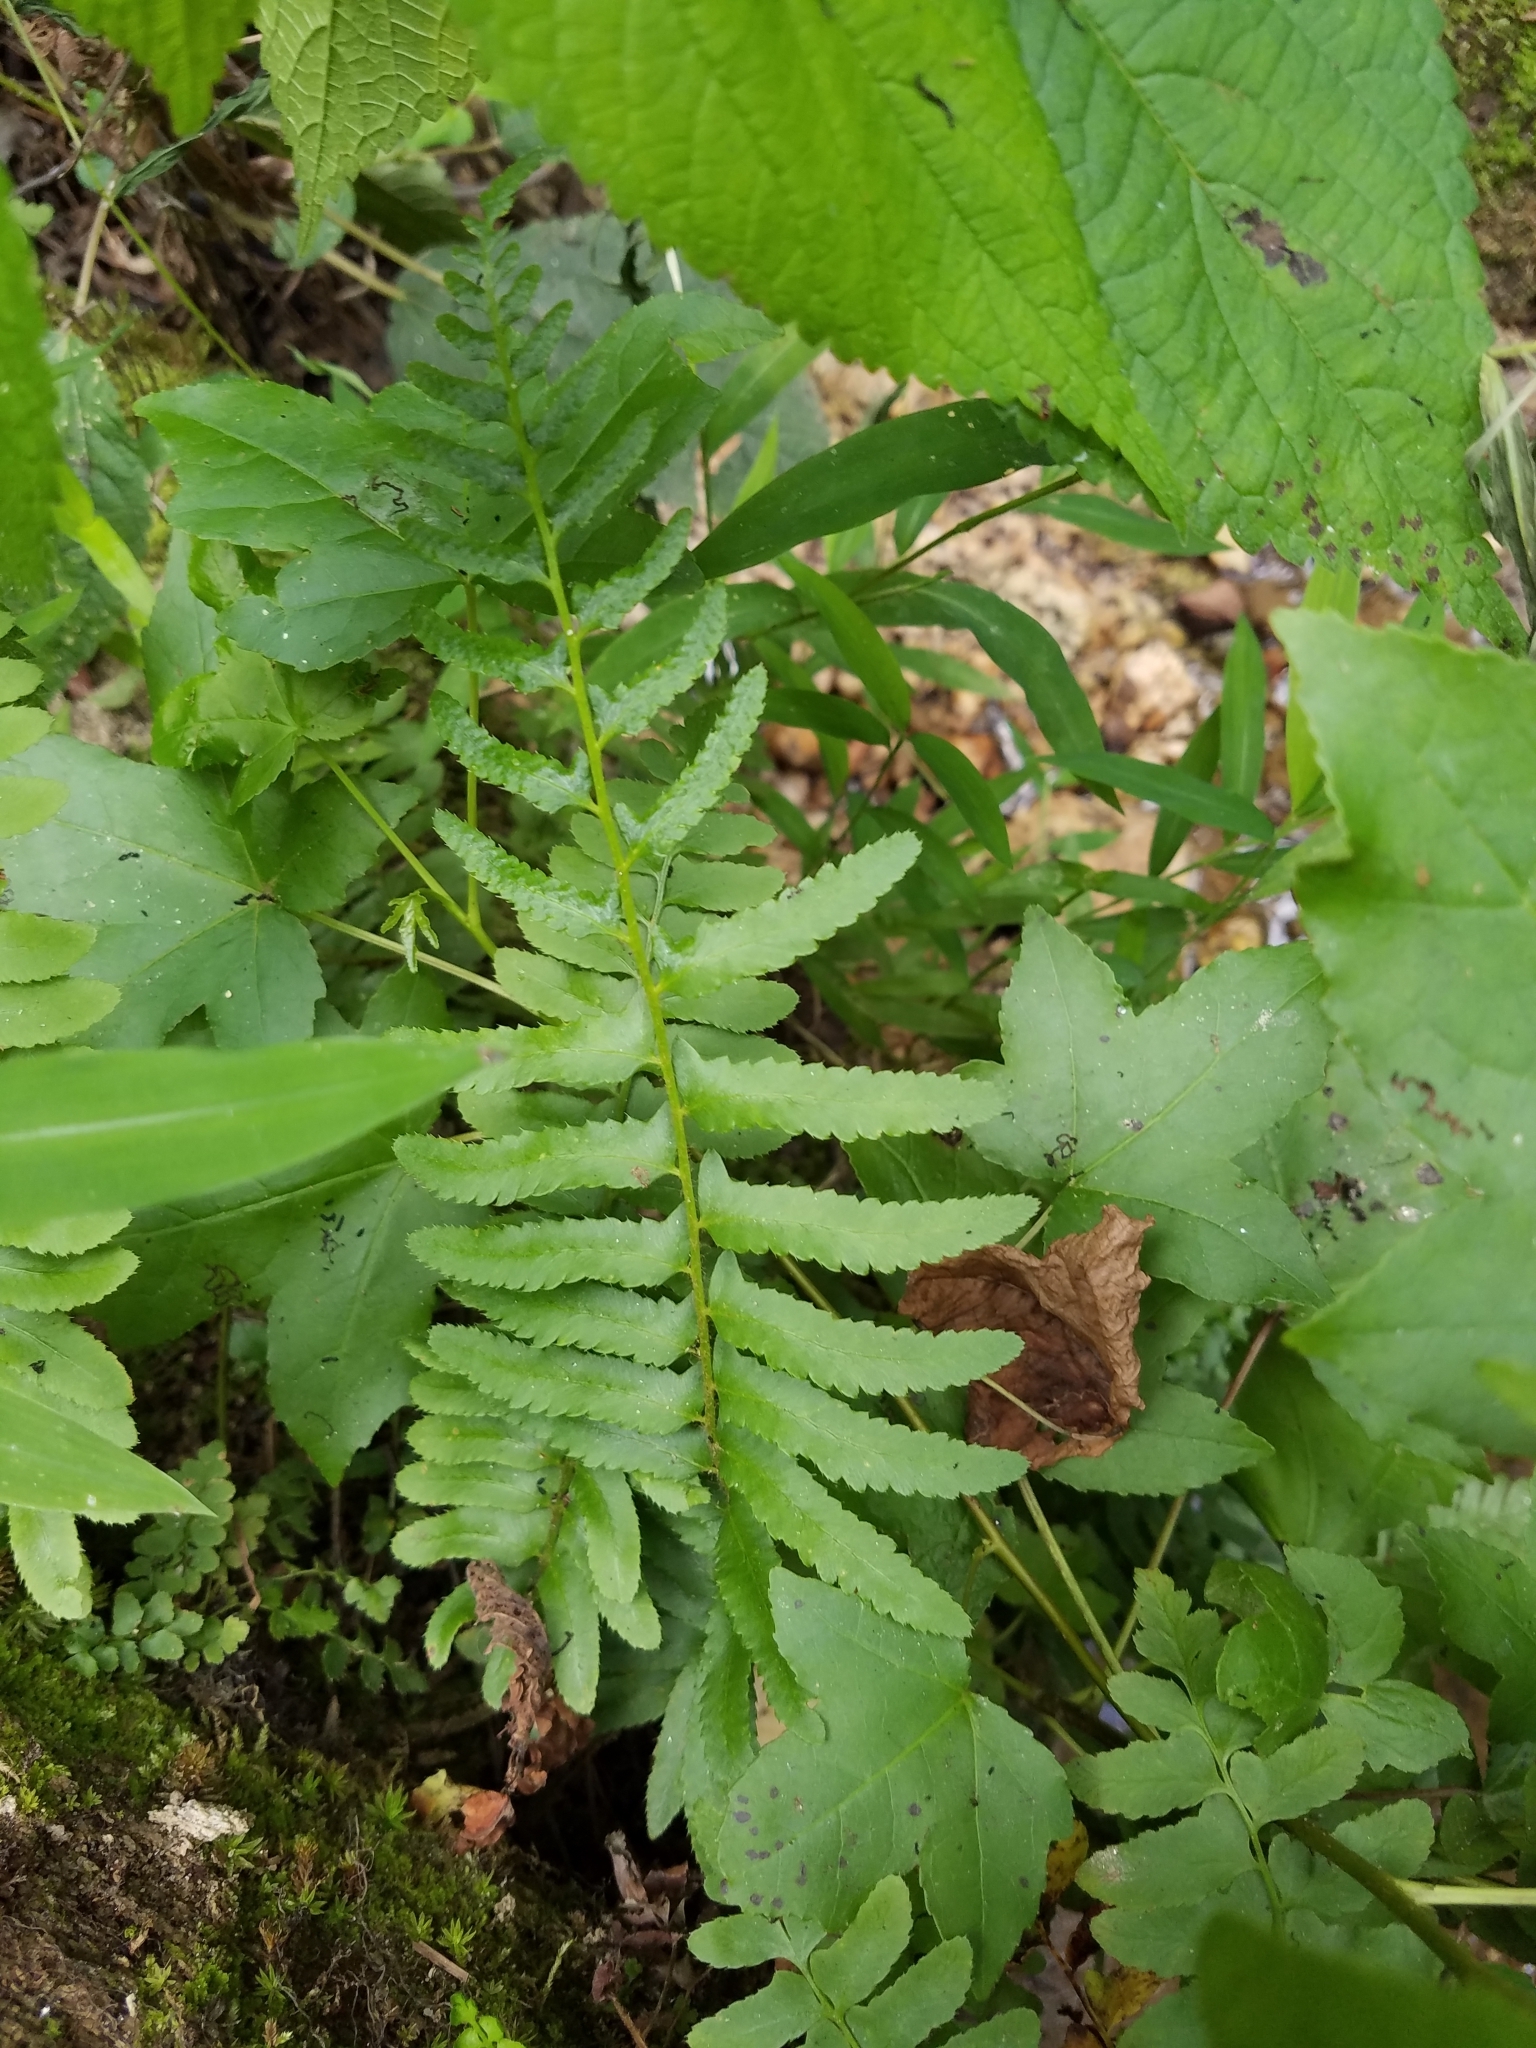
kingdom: Plantae
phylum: Tracheophyta
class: Polypodiopsida
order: Polypodiales
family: Dryopteridaceae
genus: Polystichum
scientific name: Polystichum acrostichoides
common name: Christmas fern
